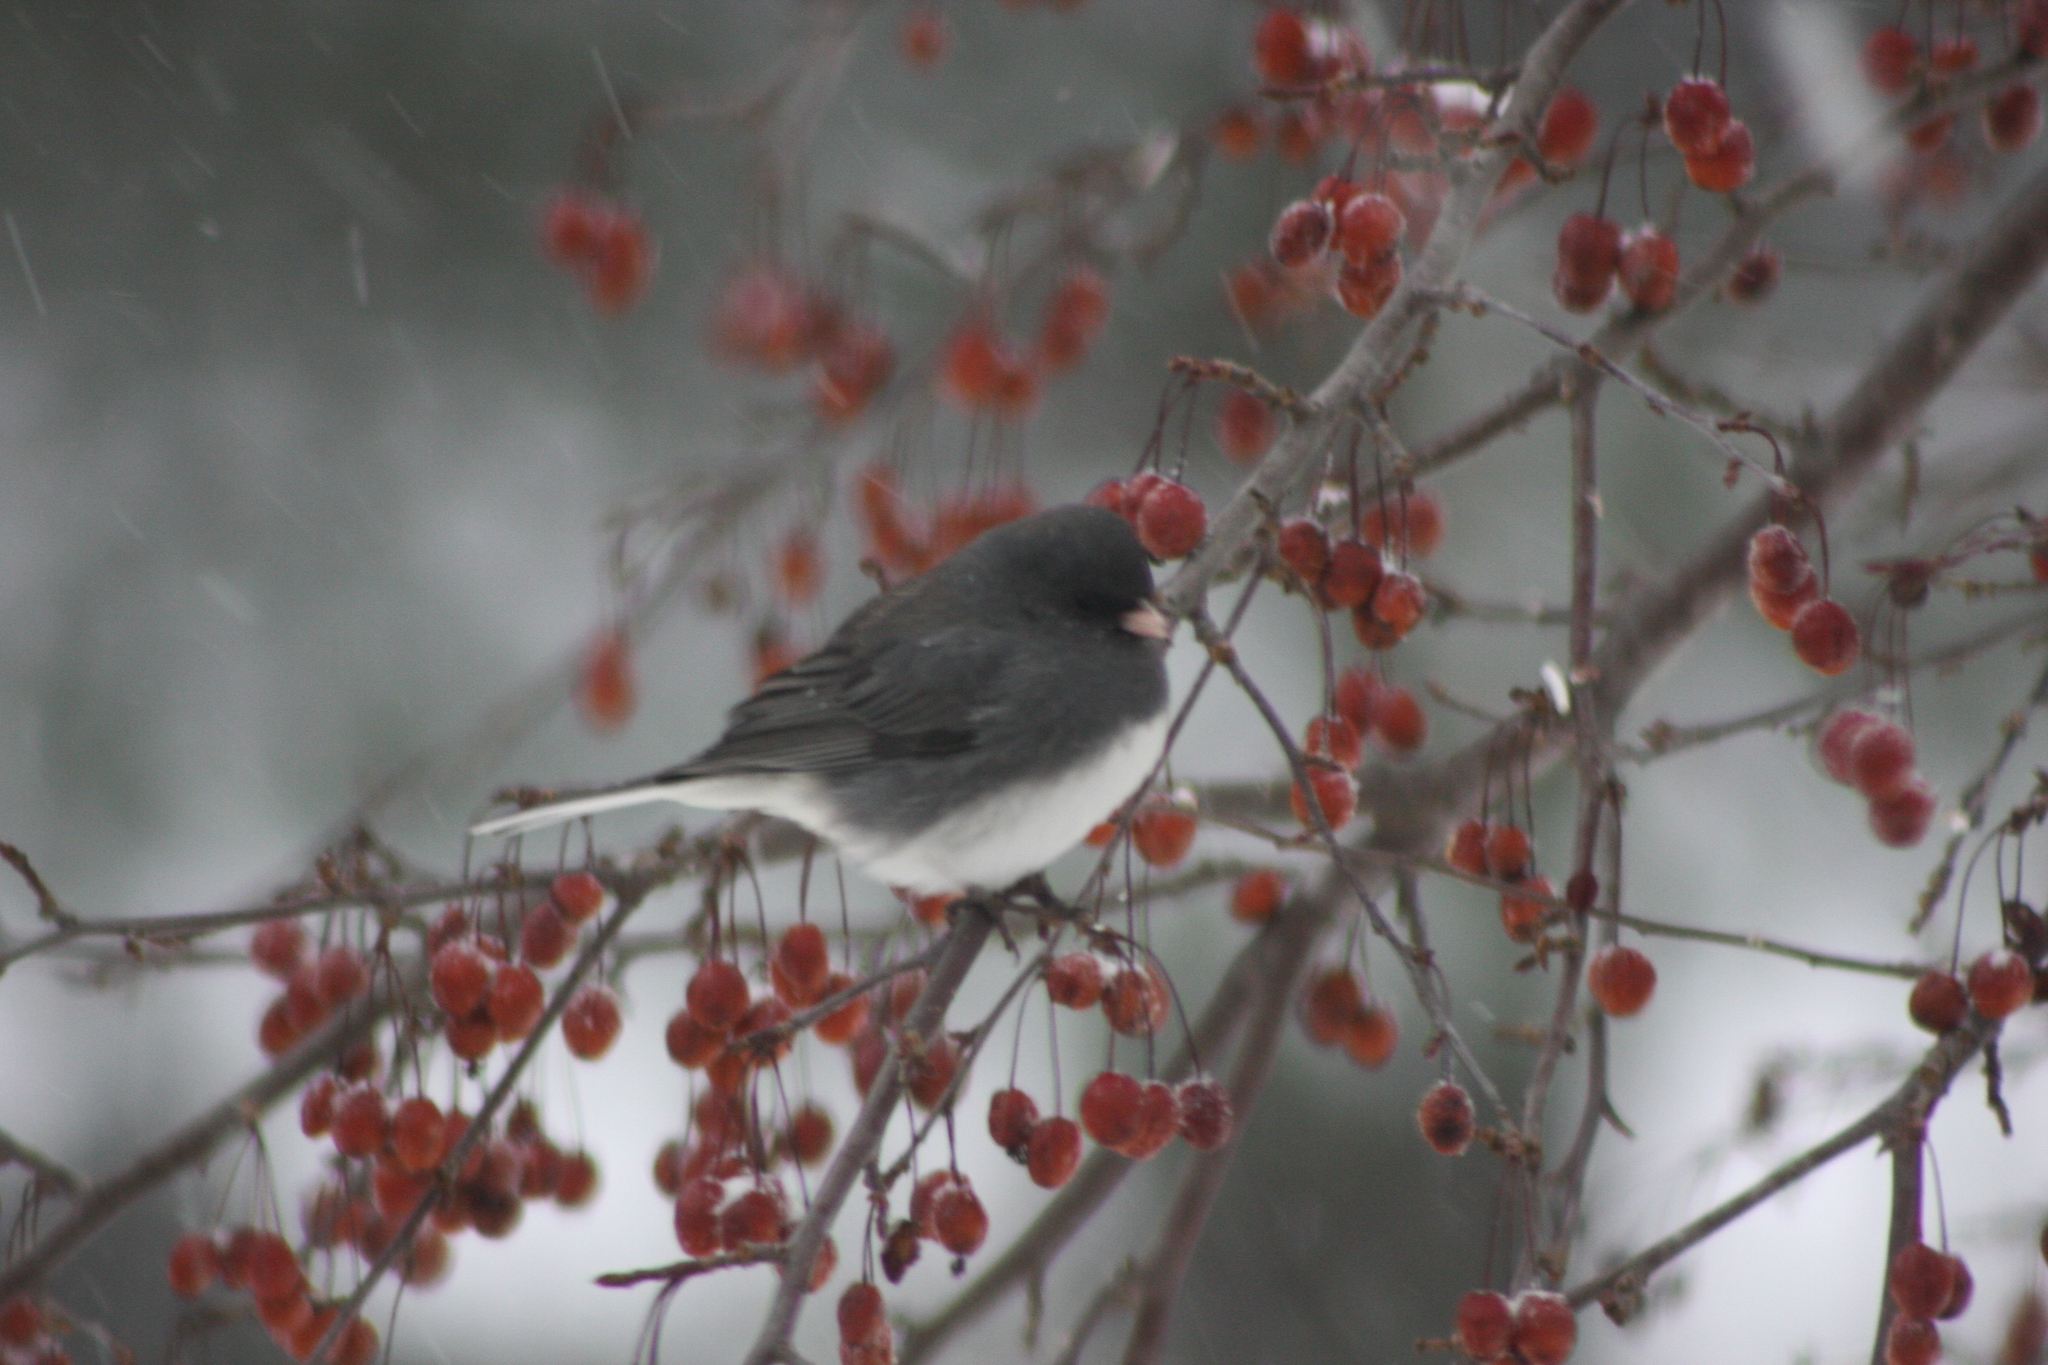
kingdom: Animalia
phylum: Chordata
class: Aves
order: Passeriformes
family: Passerellidae
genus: Junco
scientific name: Junco hyemalis
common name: Dark-eyed junco
